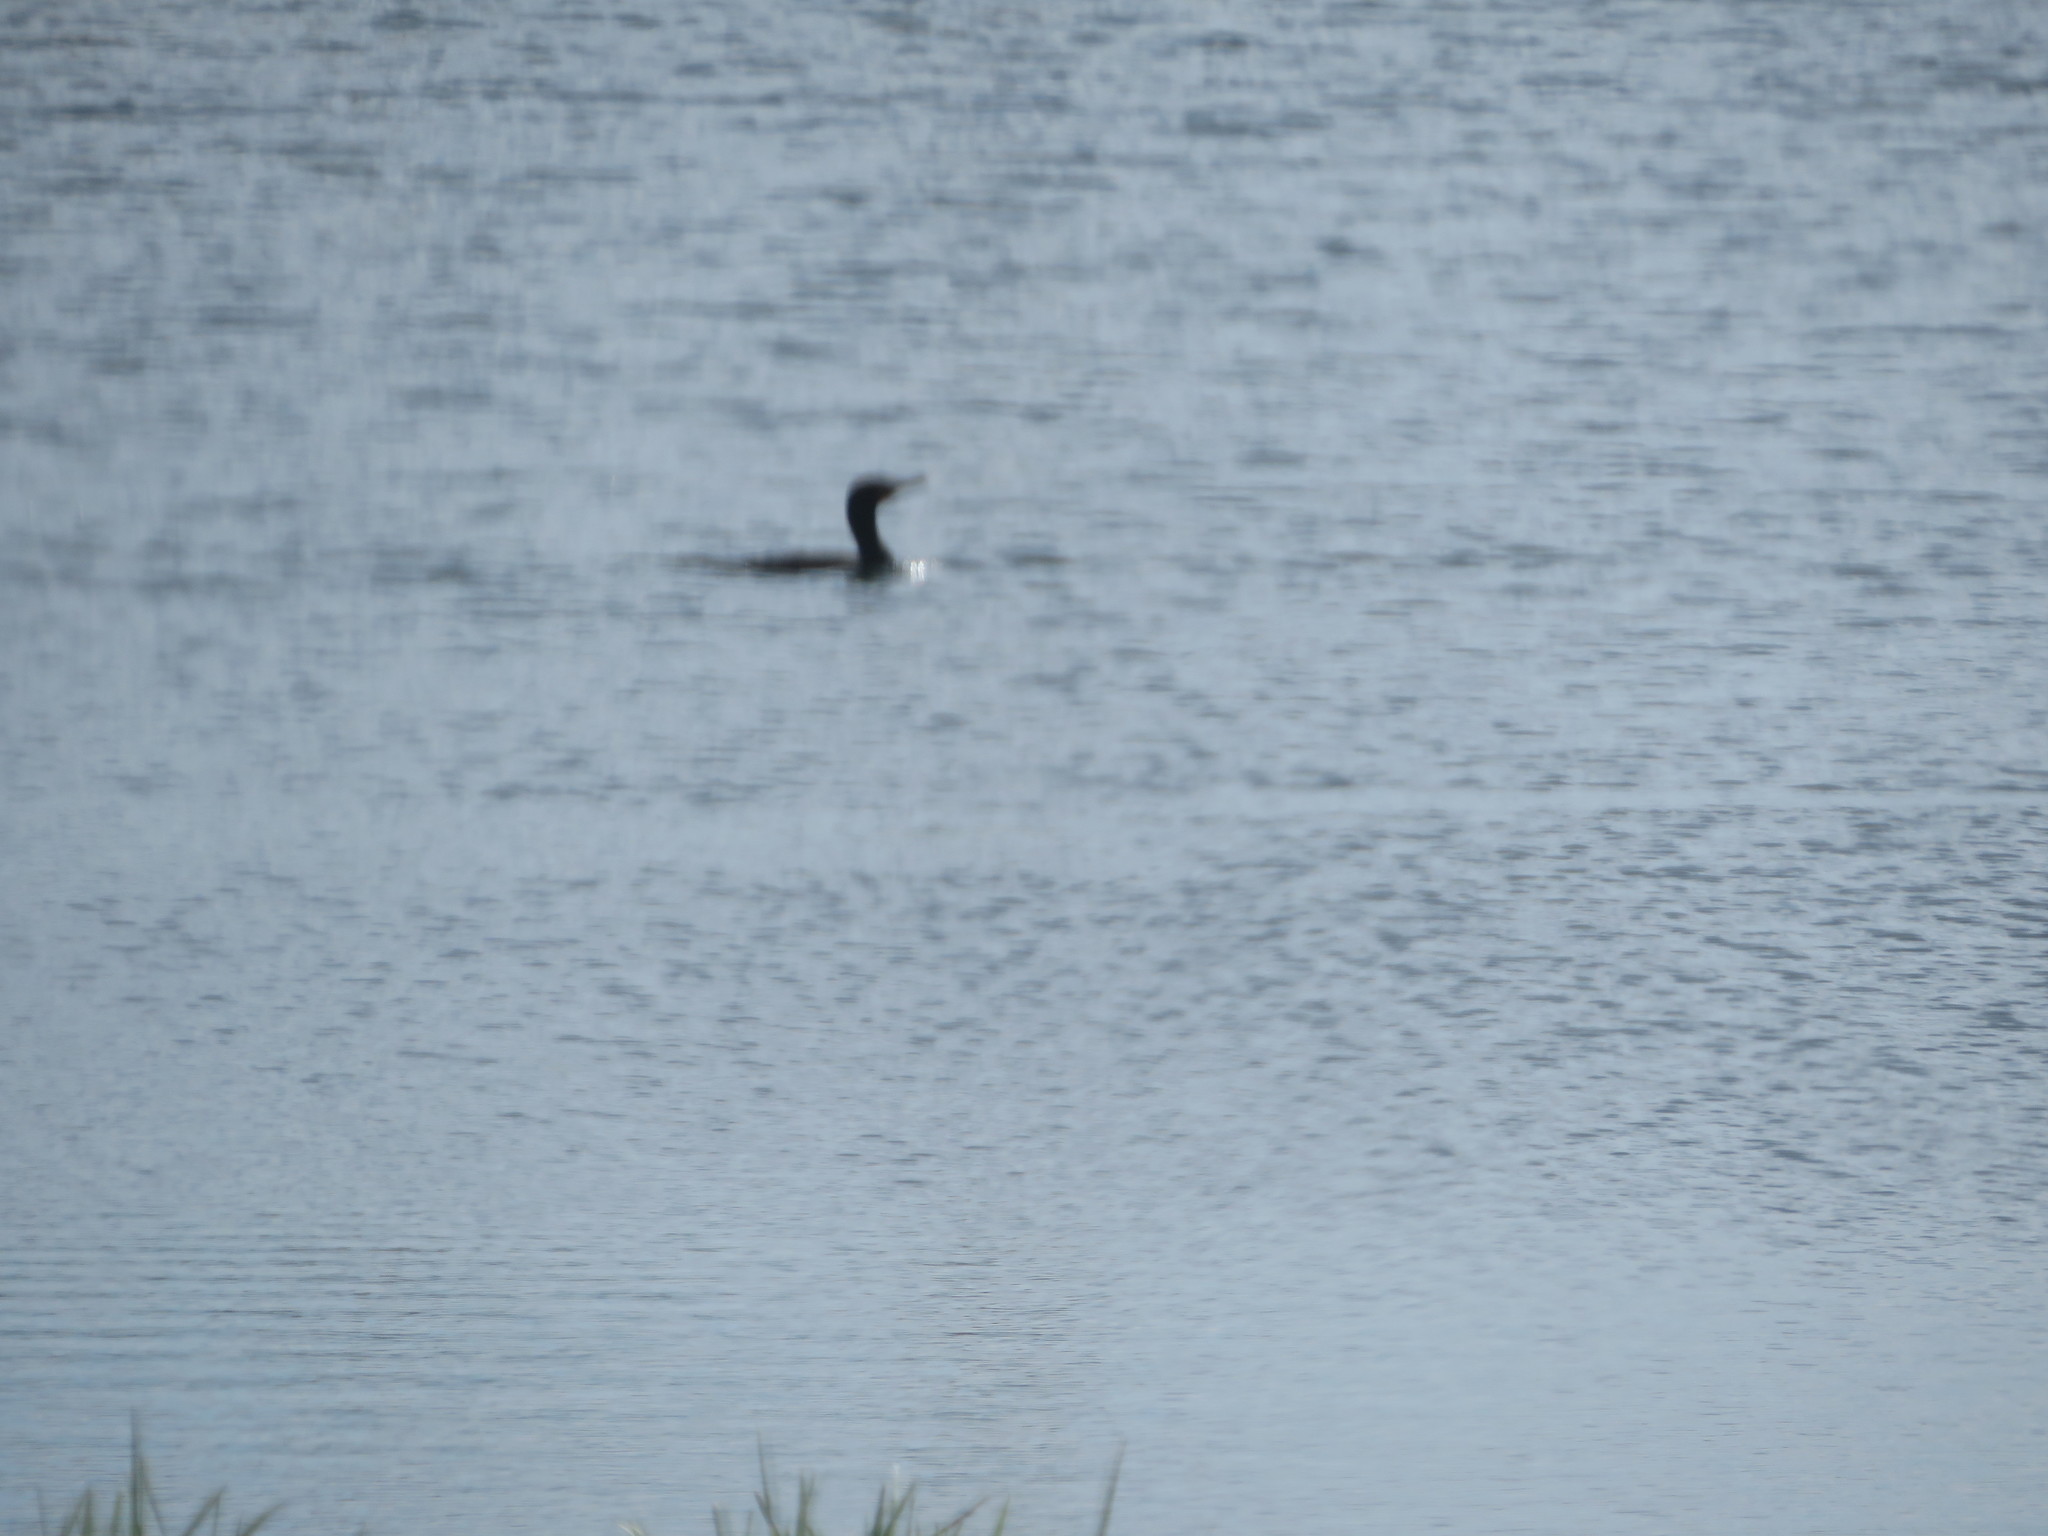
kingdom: Animalia
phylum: Chordata
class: Aves
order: Suliformes
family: Phalacrocoracidae
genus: Phalacrocorax
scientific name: Phalacrocorax auritus
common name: Double-crested cormorant
